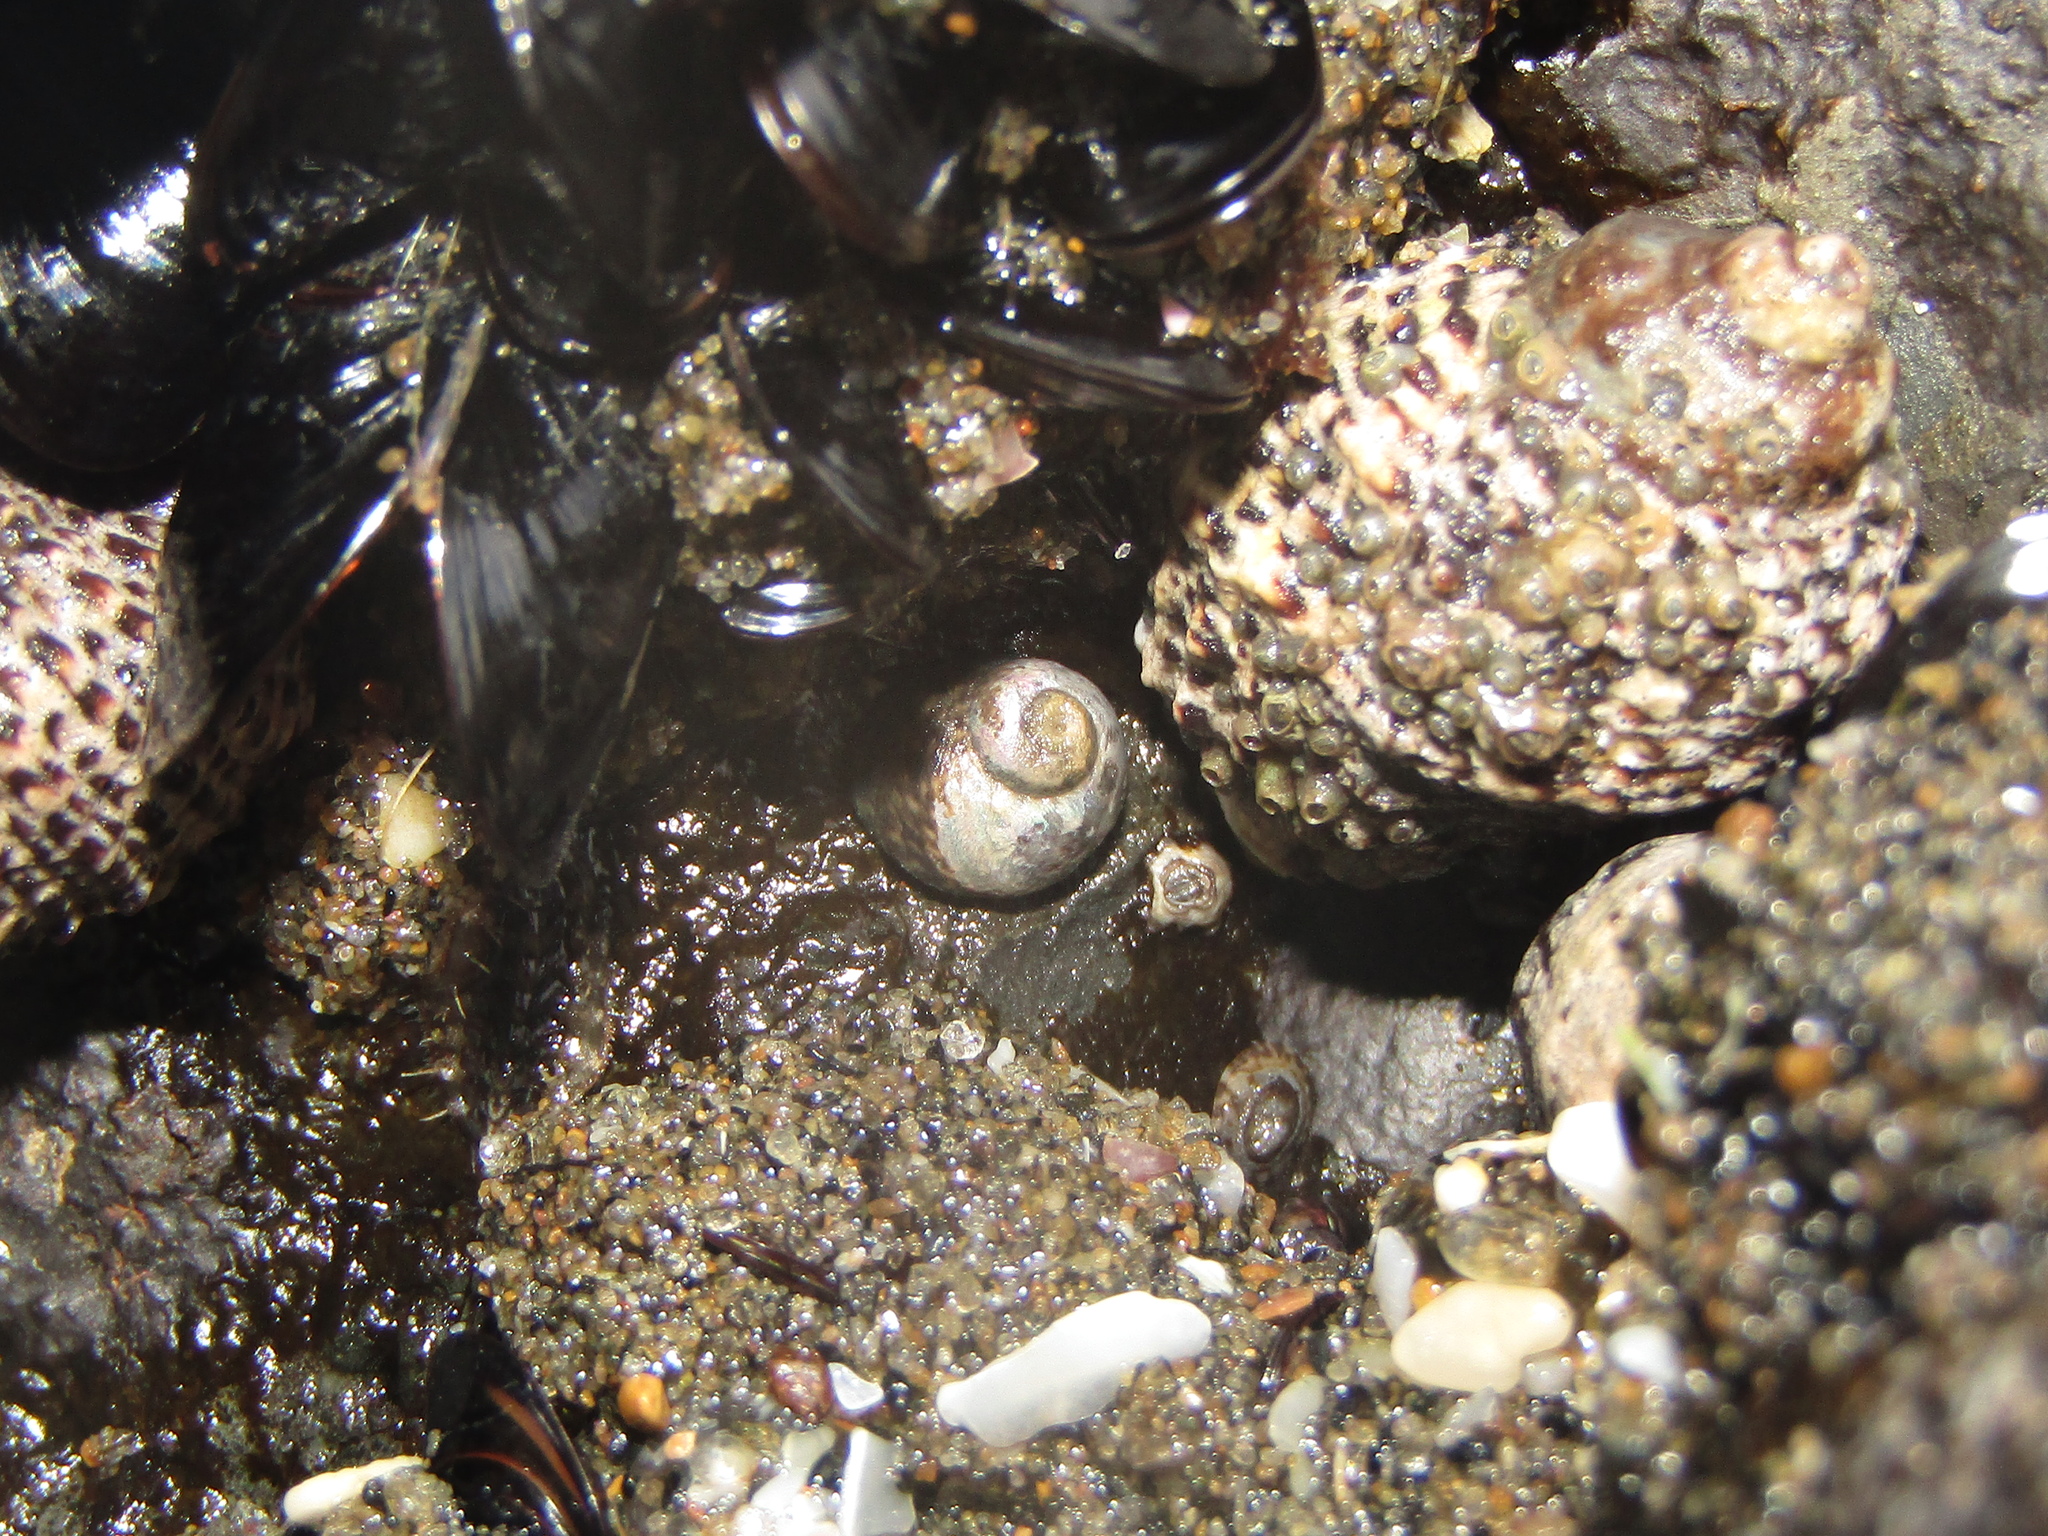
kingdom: Animalia
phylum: Mollusca
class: Gastropoda
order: Trochida
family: Trochidae
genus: Diloma
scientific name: Diloma coracinum
